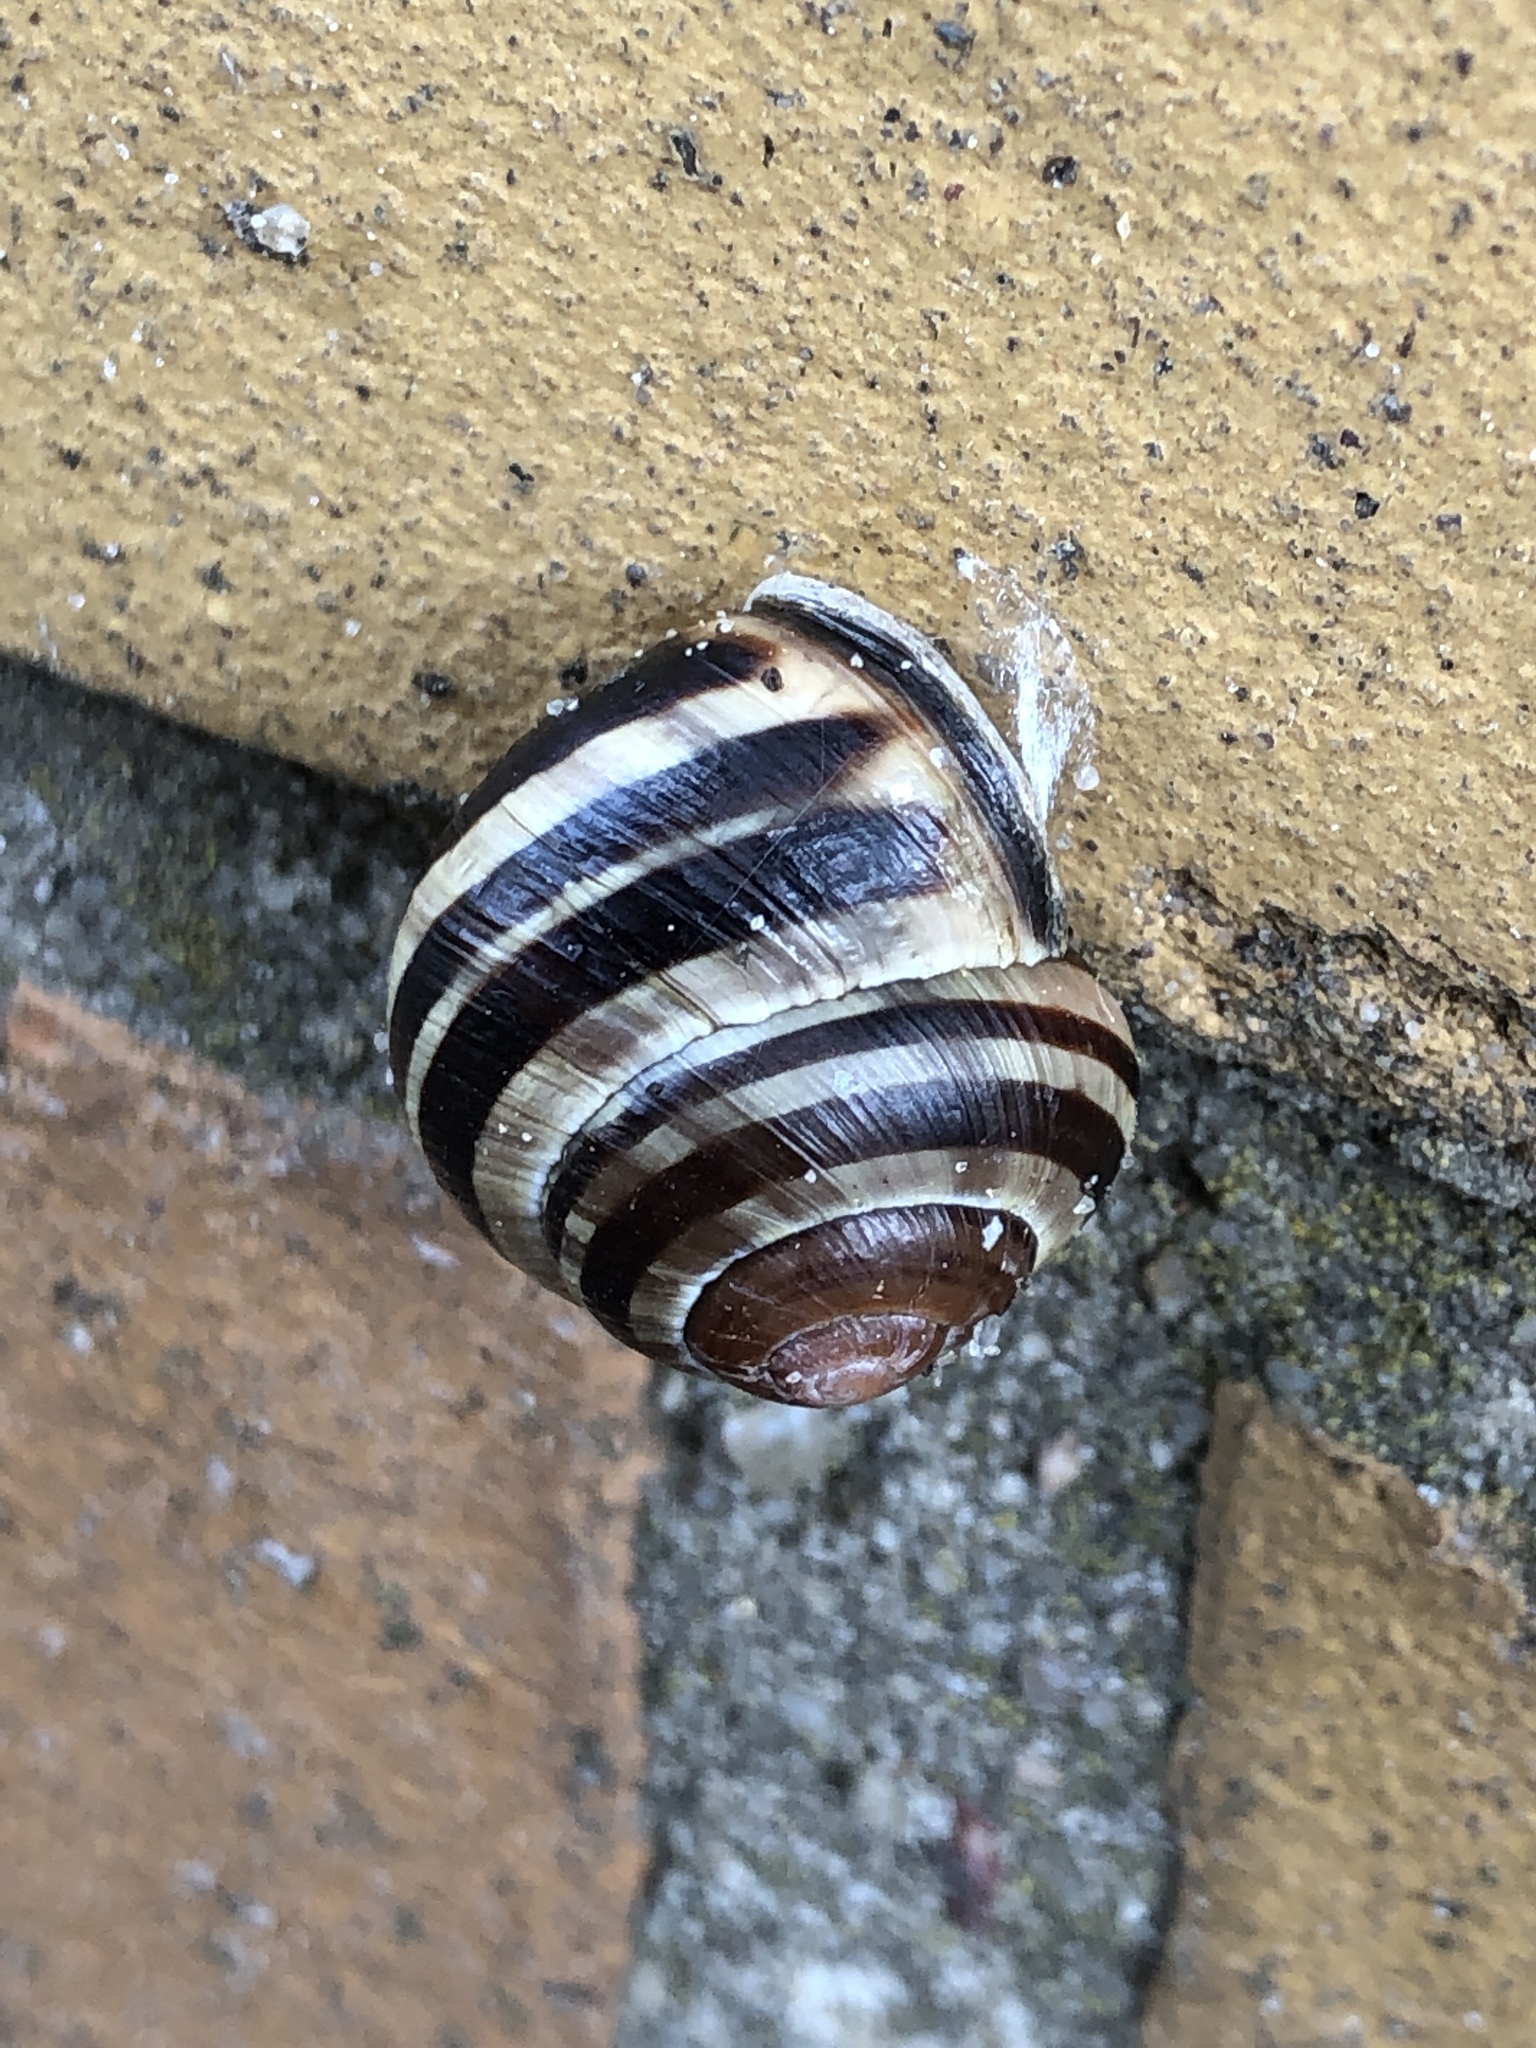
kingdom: Animalia
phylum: Mollusca
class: Gastropoda
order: Stylommatophora
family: Helicidae
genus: Cepaea
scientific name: Cepaea nemoralis
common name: Grovesnail
